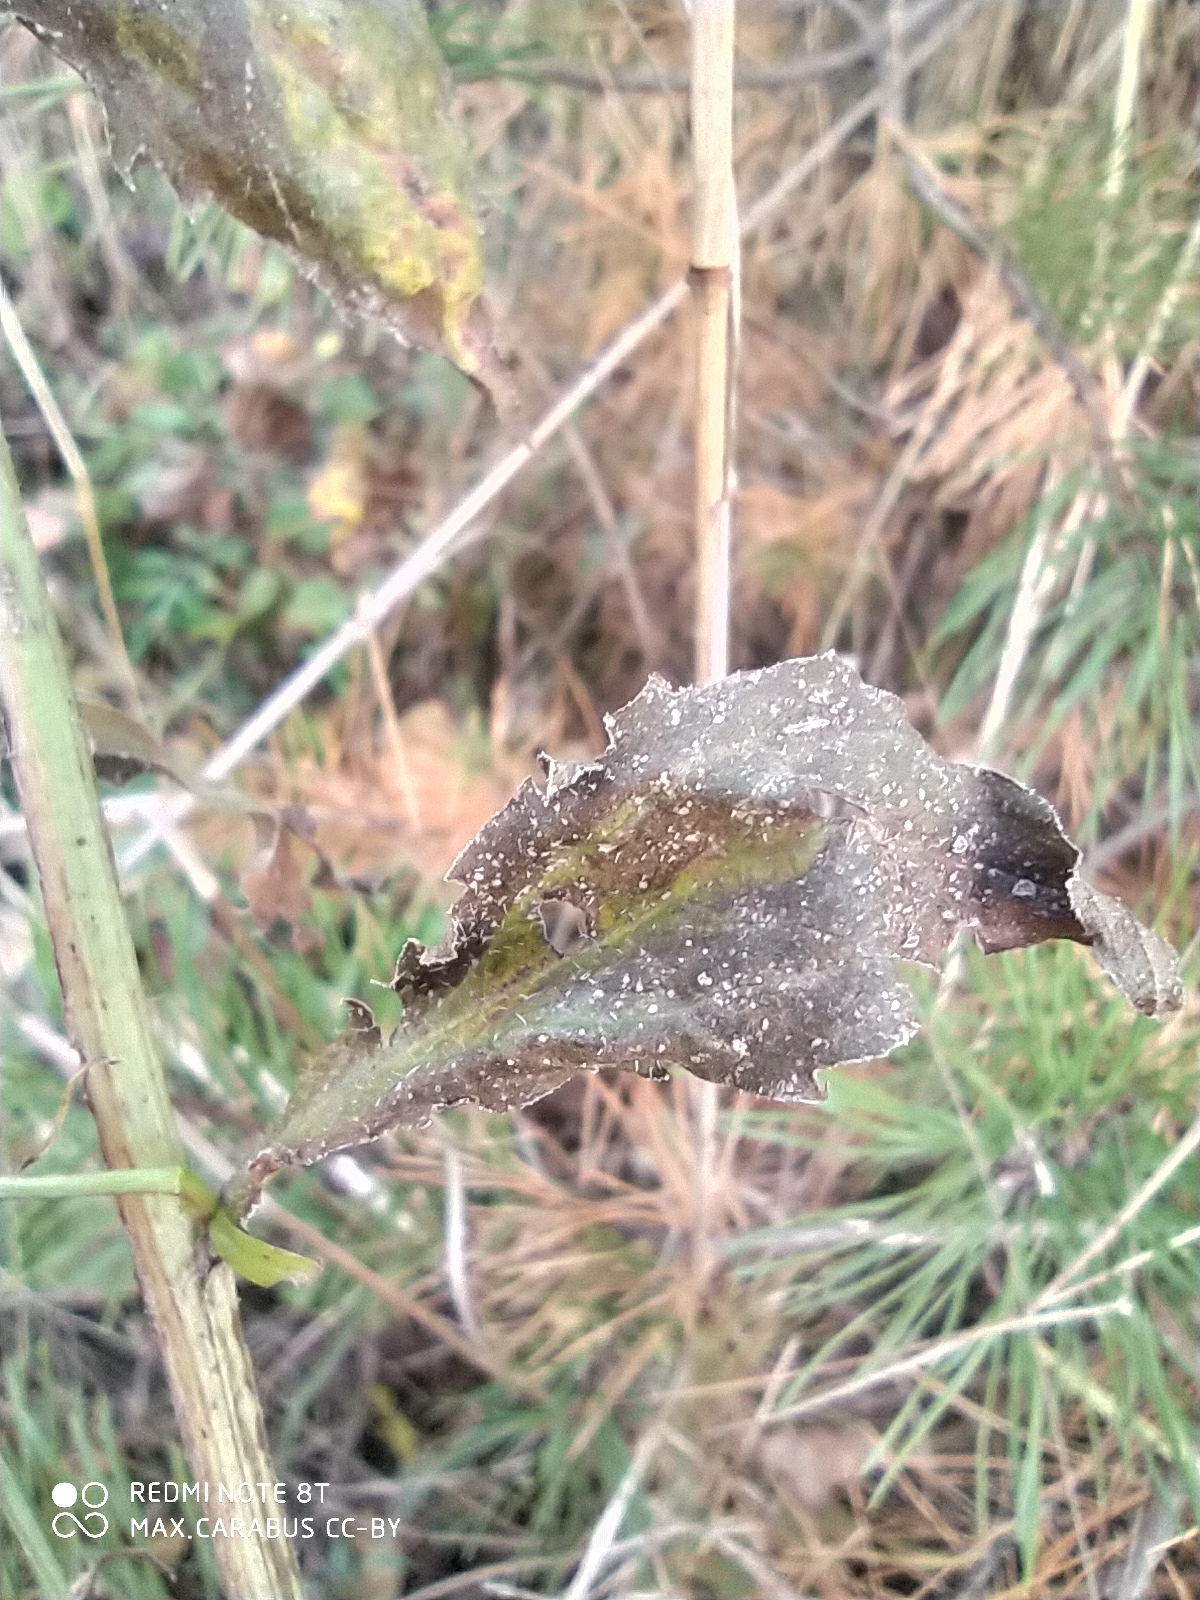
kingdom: Plantae
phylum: Tracheophyta
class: Magnoliopsida
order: Asterales
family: Asteraceae
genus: Erigeron
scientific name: Erigeron annuus
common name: Tall fleabane
